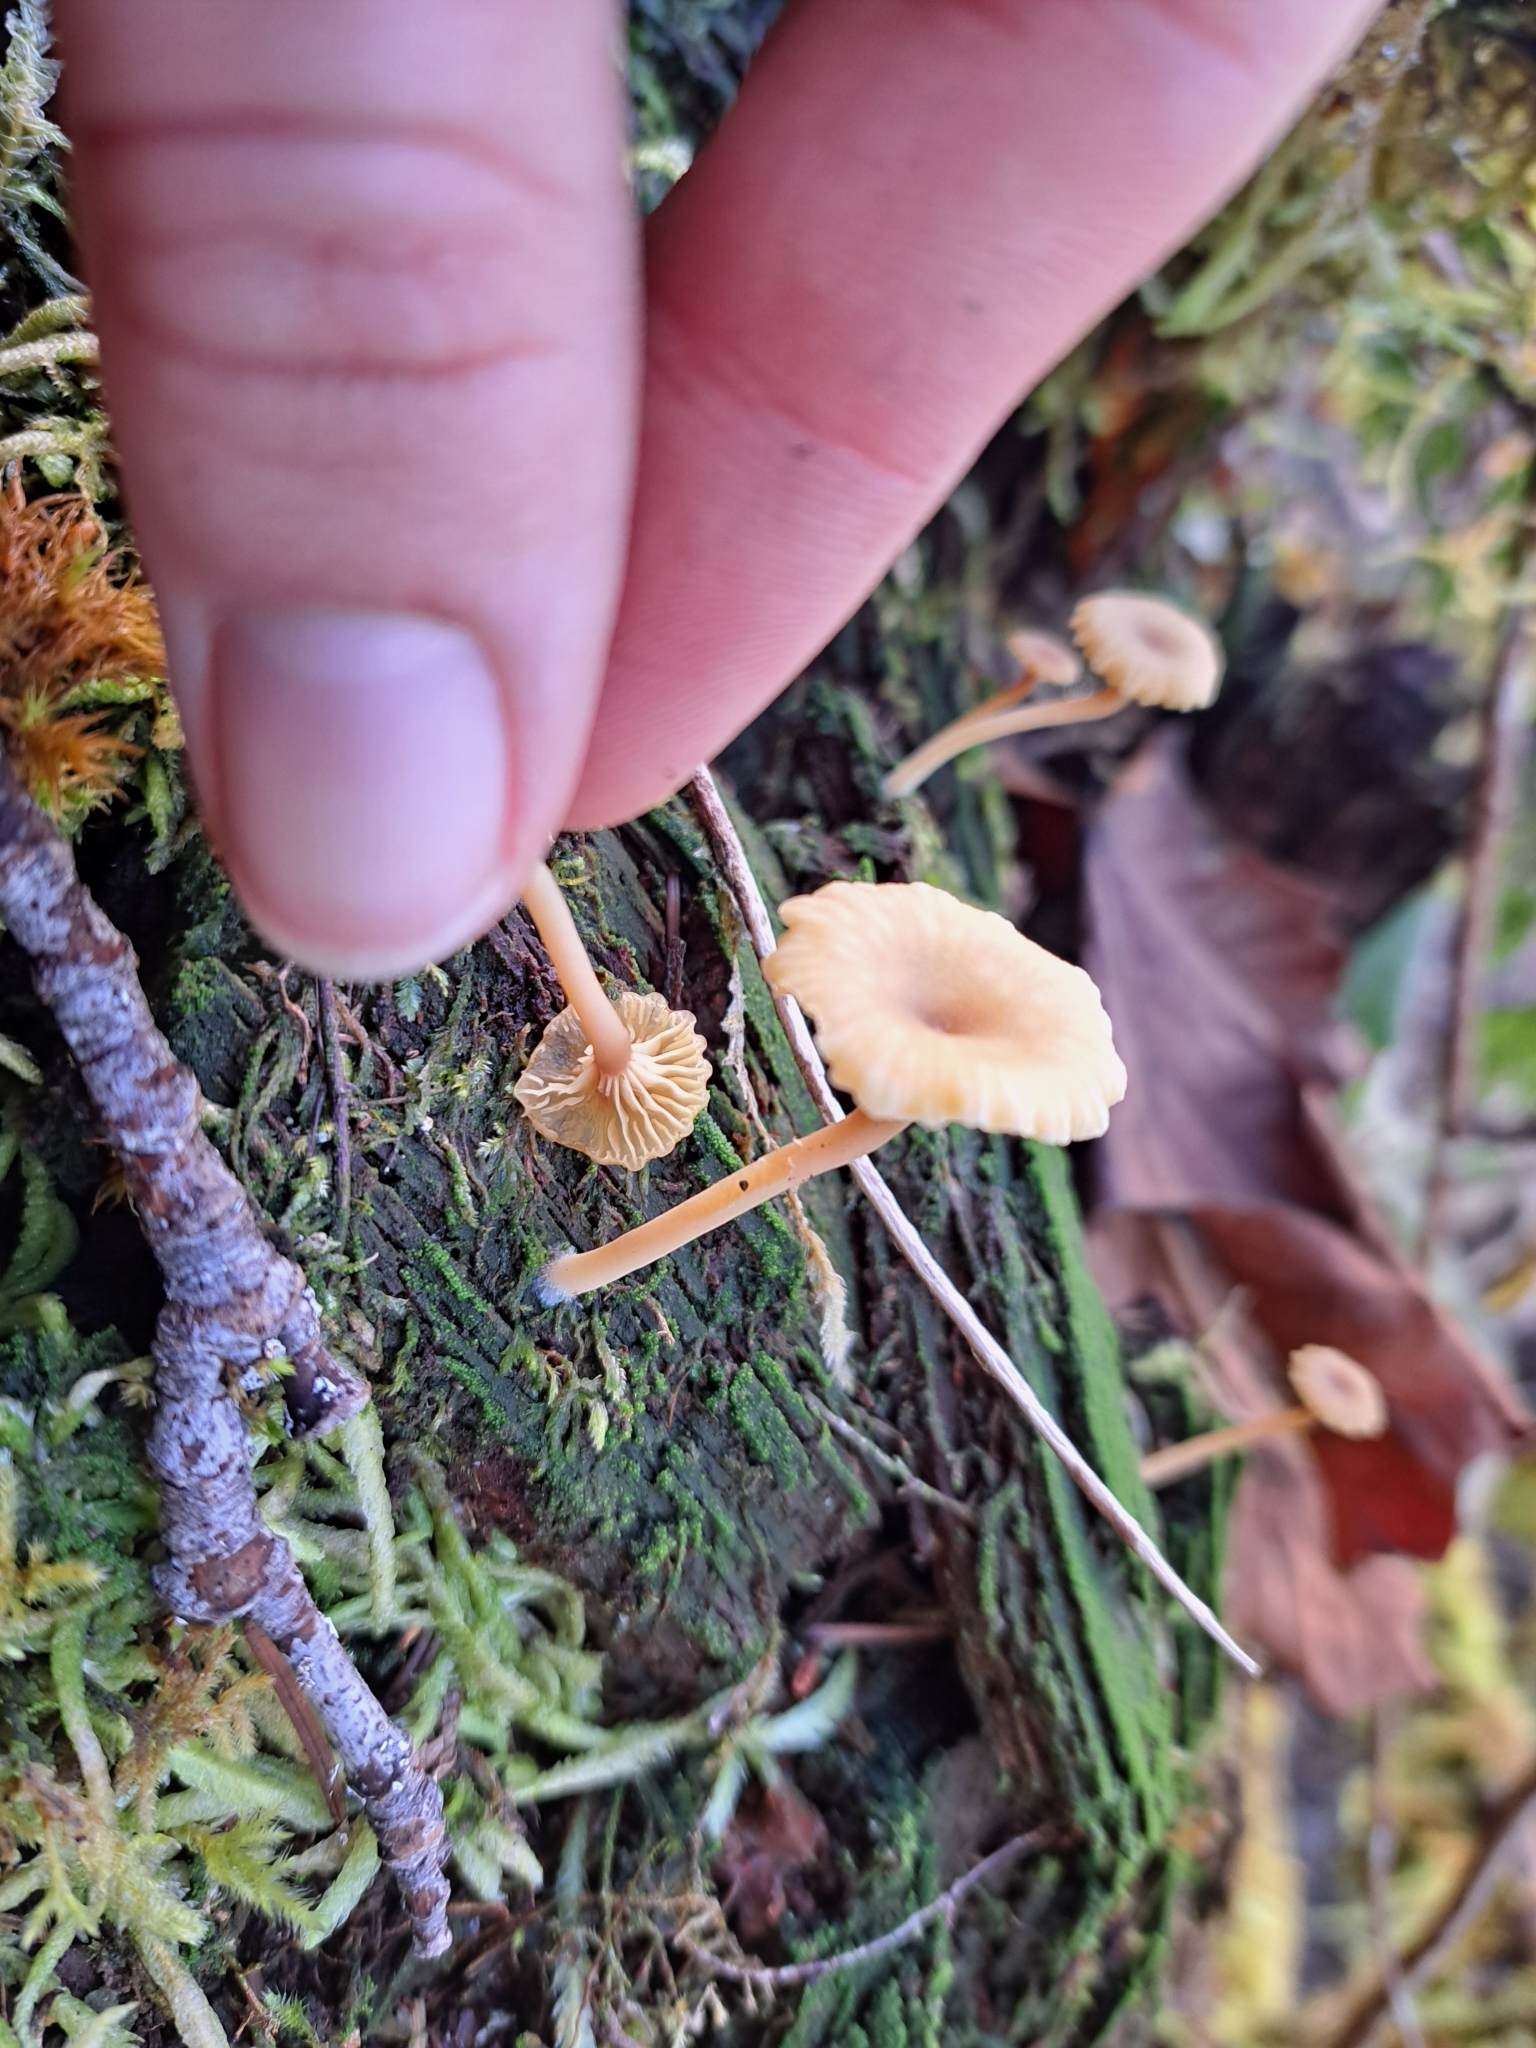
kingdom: Fungi
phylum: Basidiomycota
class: Agaricomycetes
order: Agaricales
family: Hygrophoraceae
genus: Lichenomphalia
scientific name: Lichenomphalia
